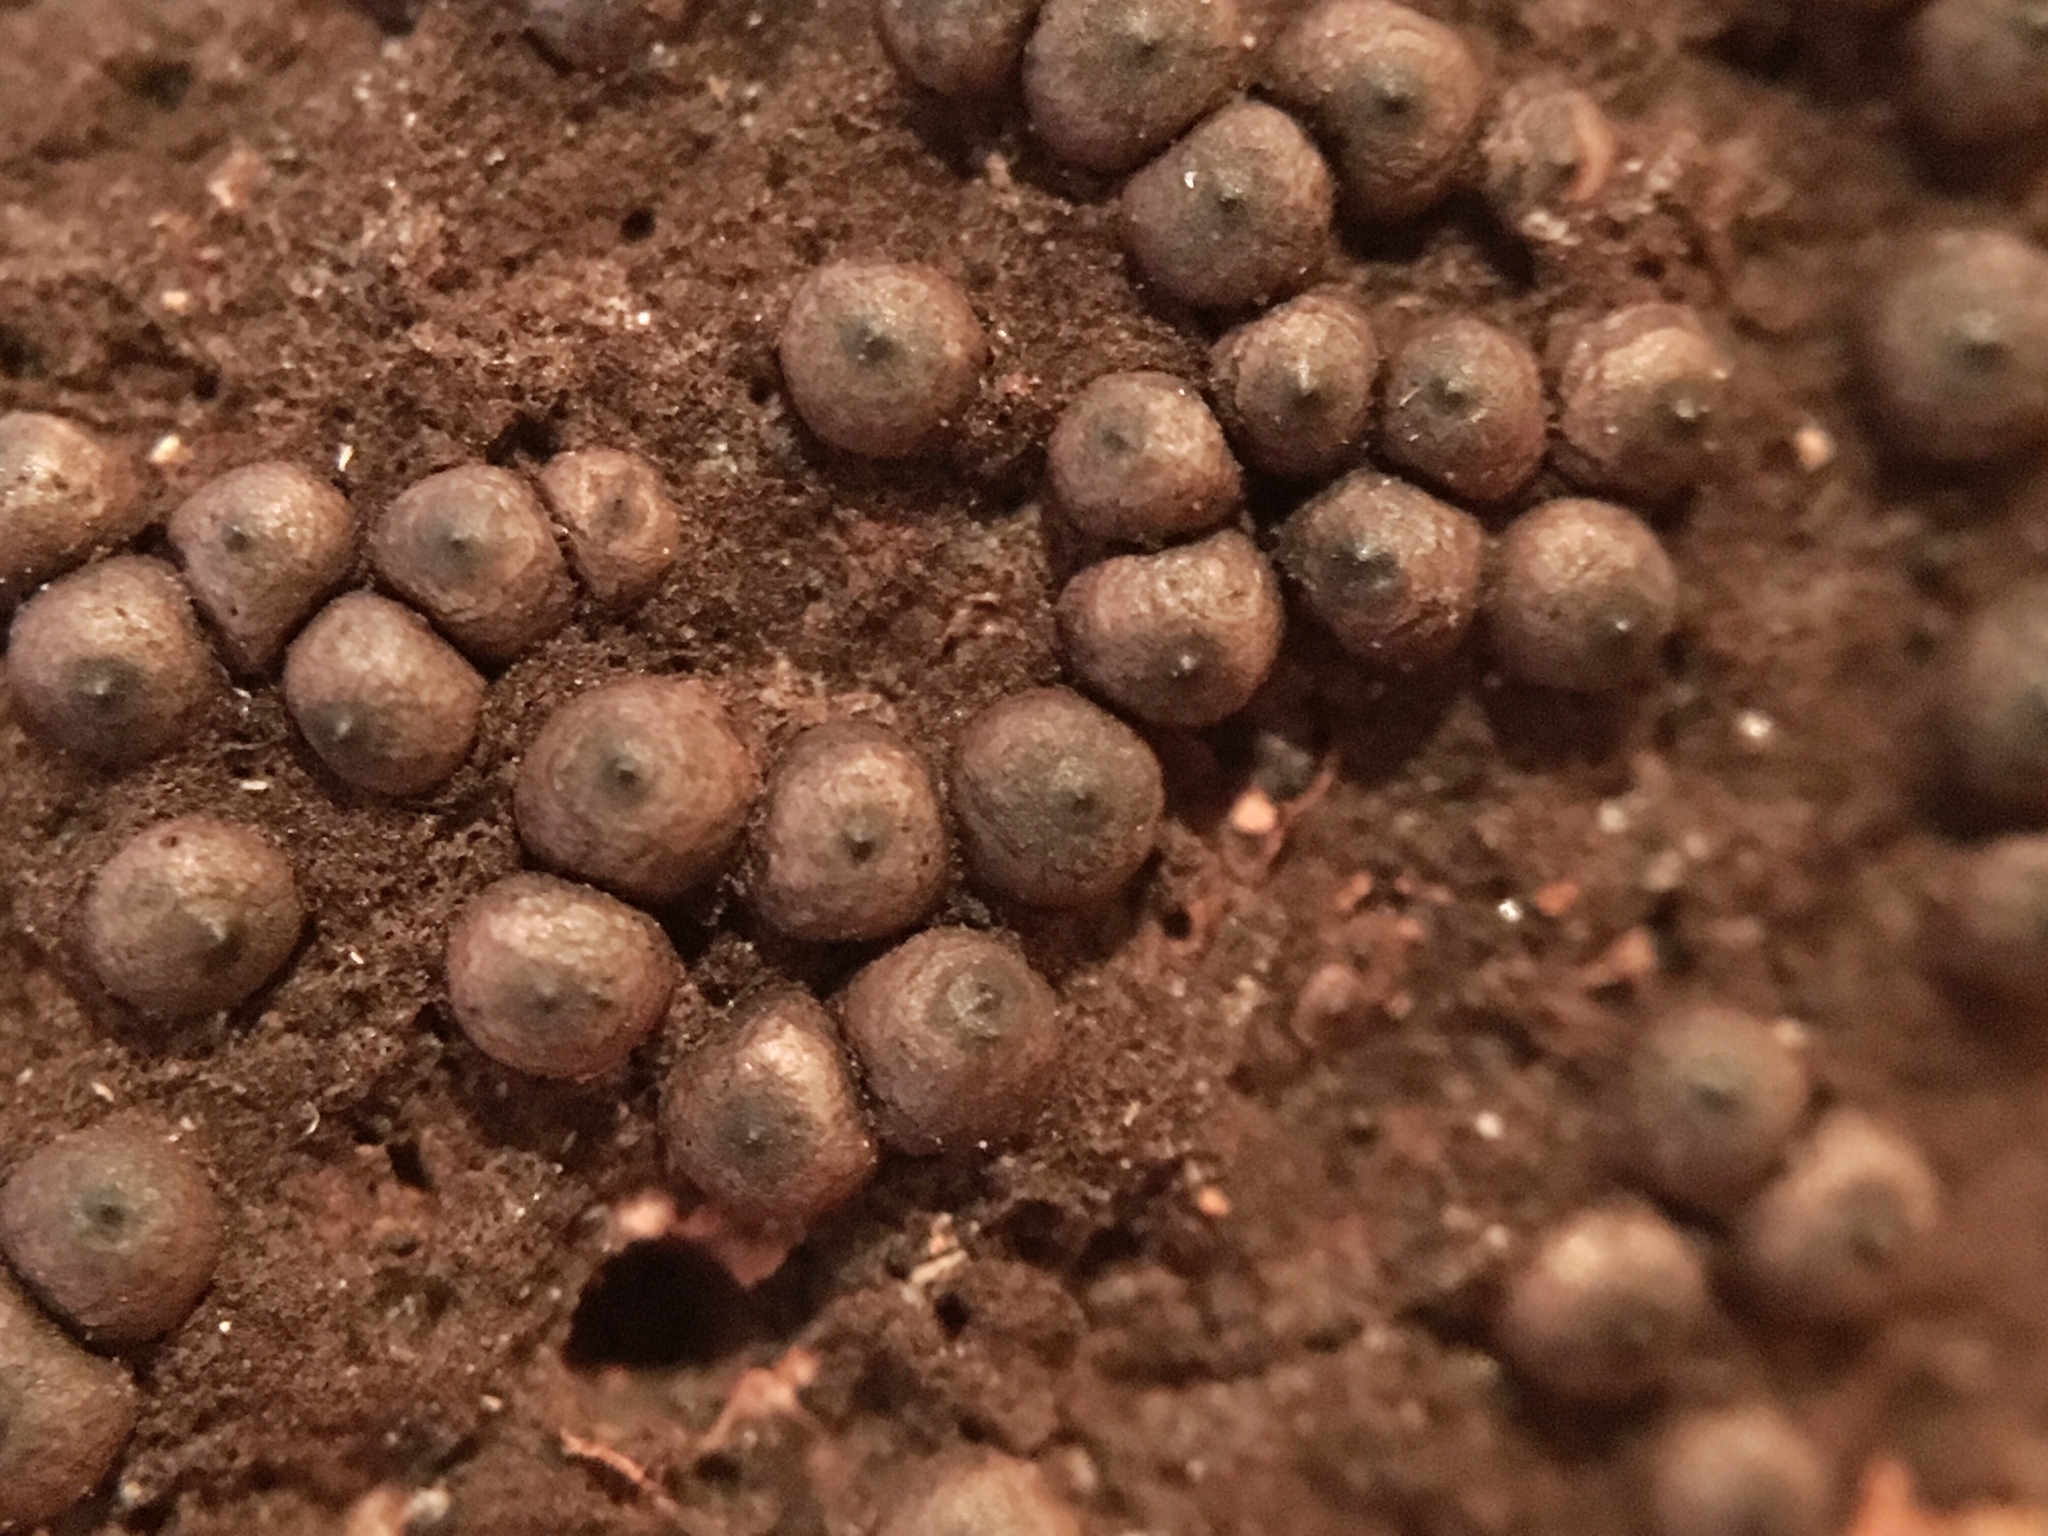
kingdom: Fungi
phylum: Ascomycota
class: Sordariomycetes
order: Xylariales
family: Xylariaceae
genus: Rosellinia
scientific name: Rosellinia corticium
